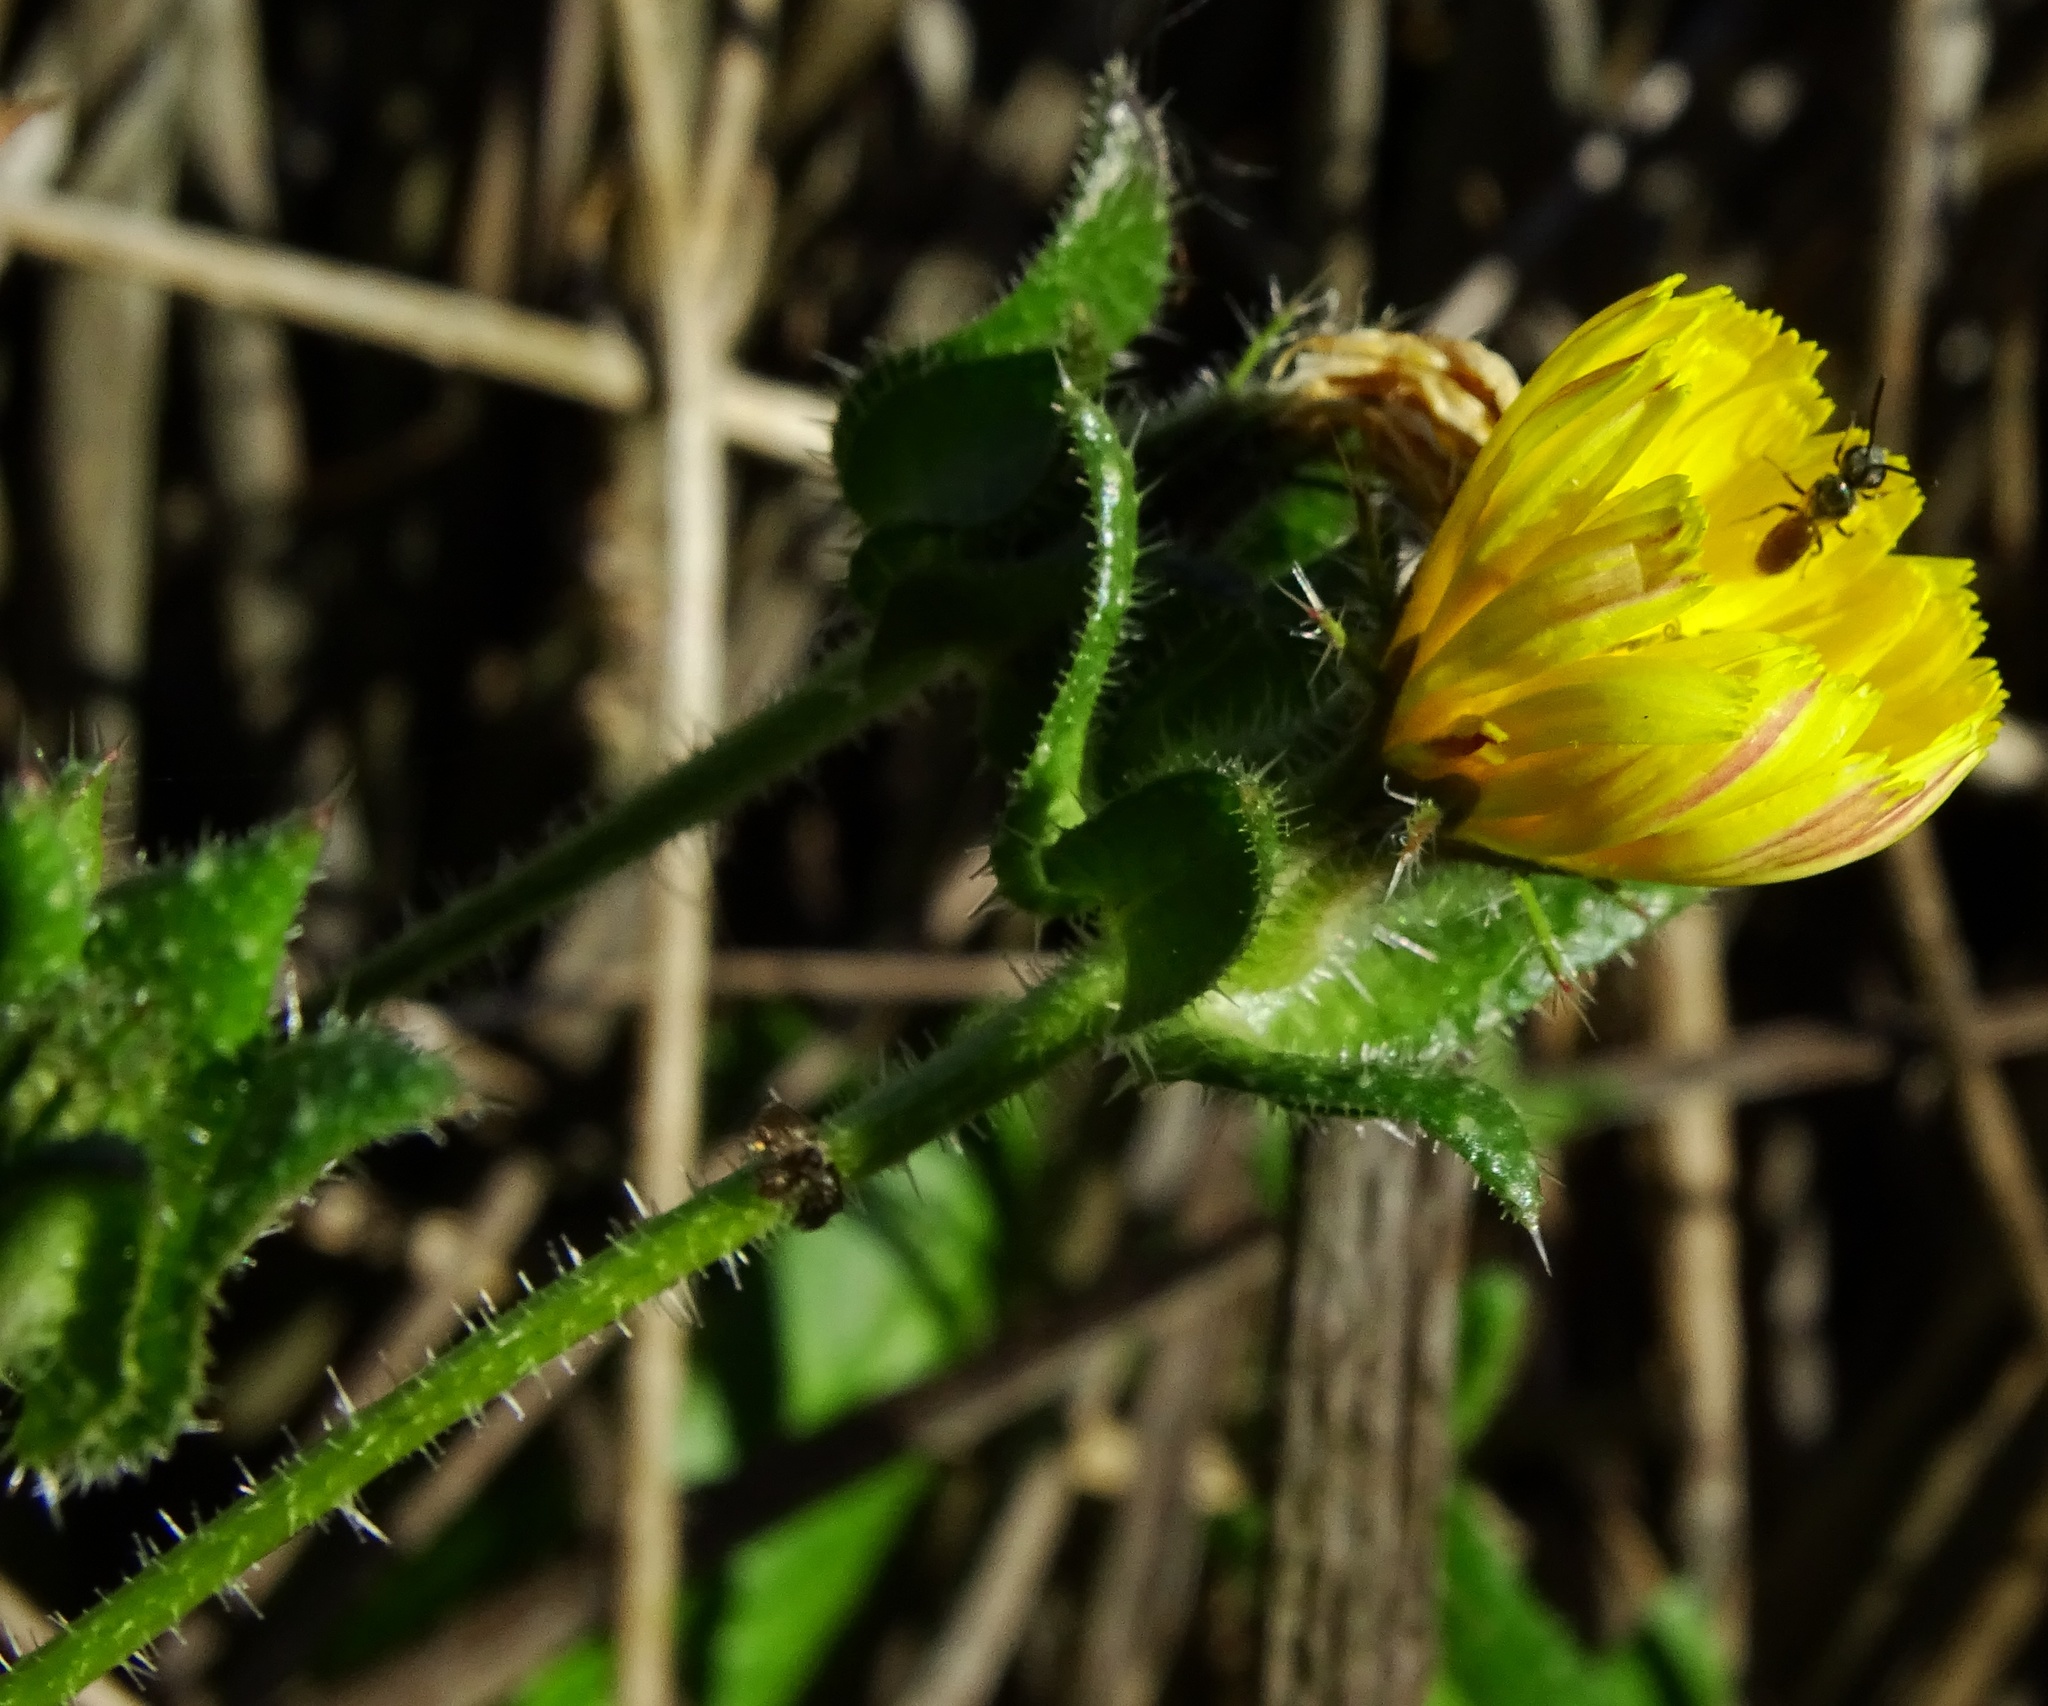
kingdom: Plantae
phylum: Tracheophyta
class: Magnoliopsida
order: Asterales
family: Asteraceae
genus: Helminthotheca
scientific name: Helminthotheca echioides
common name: Ox-tongue
